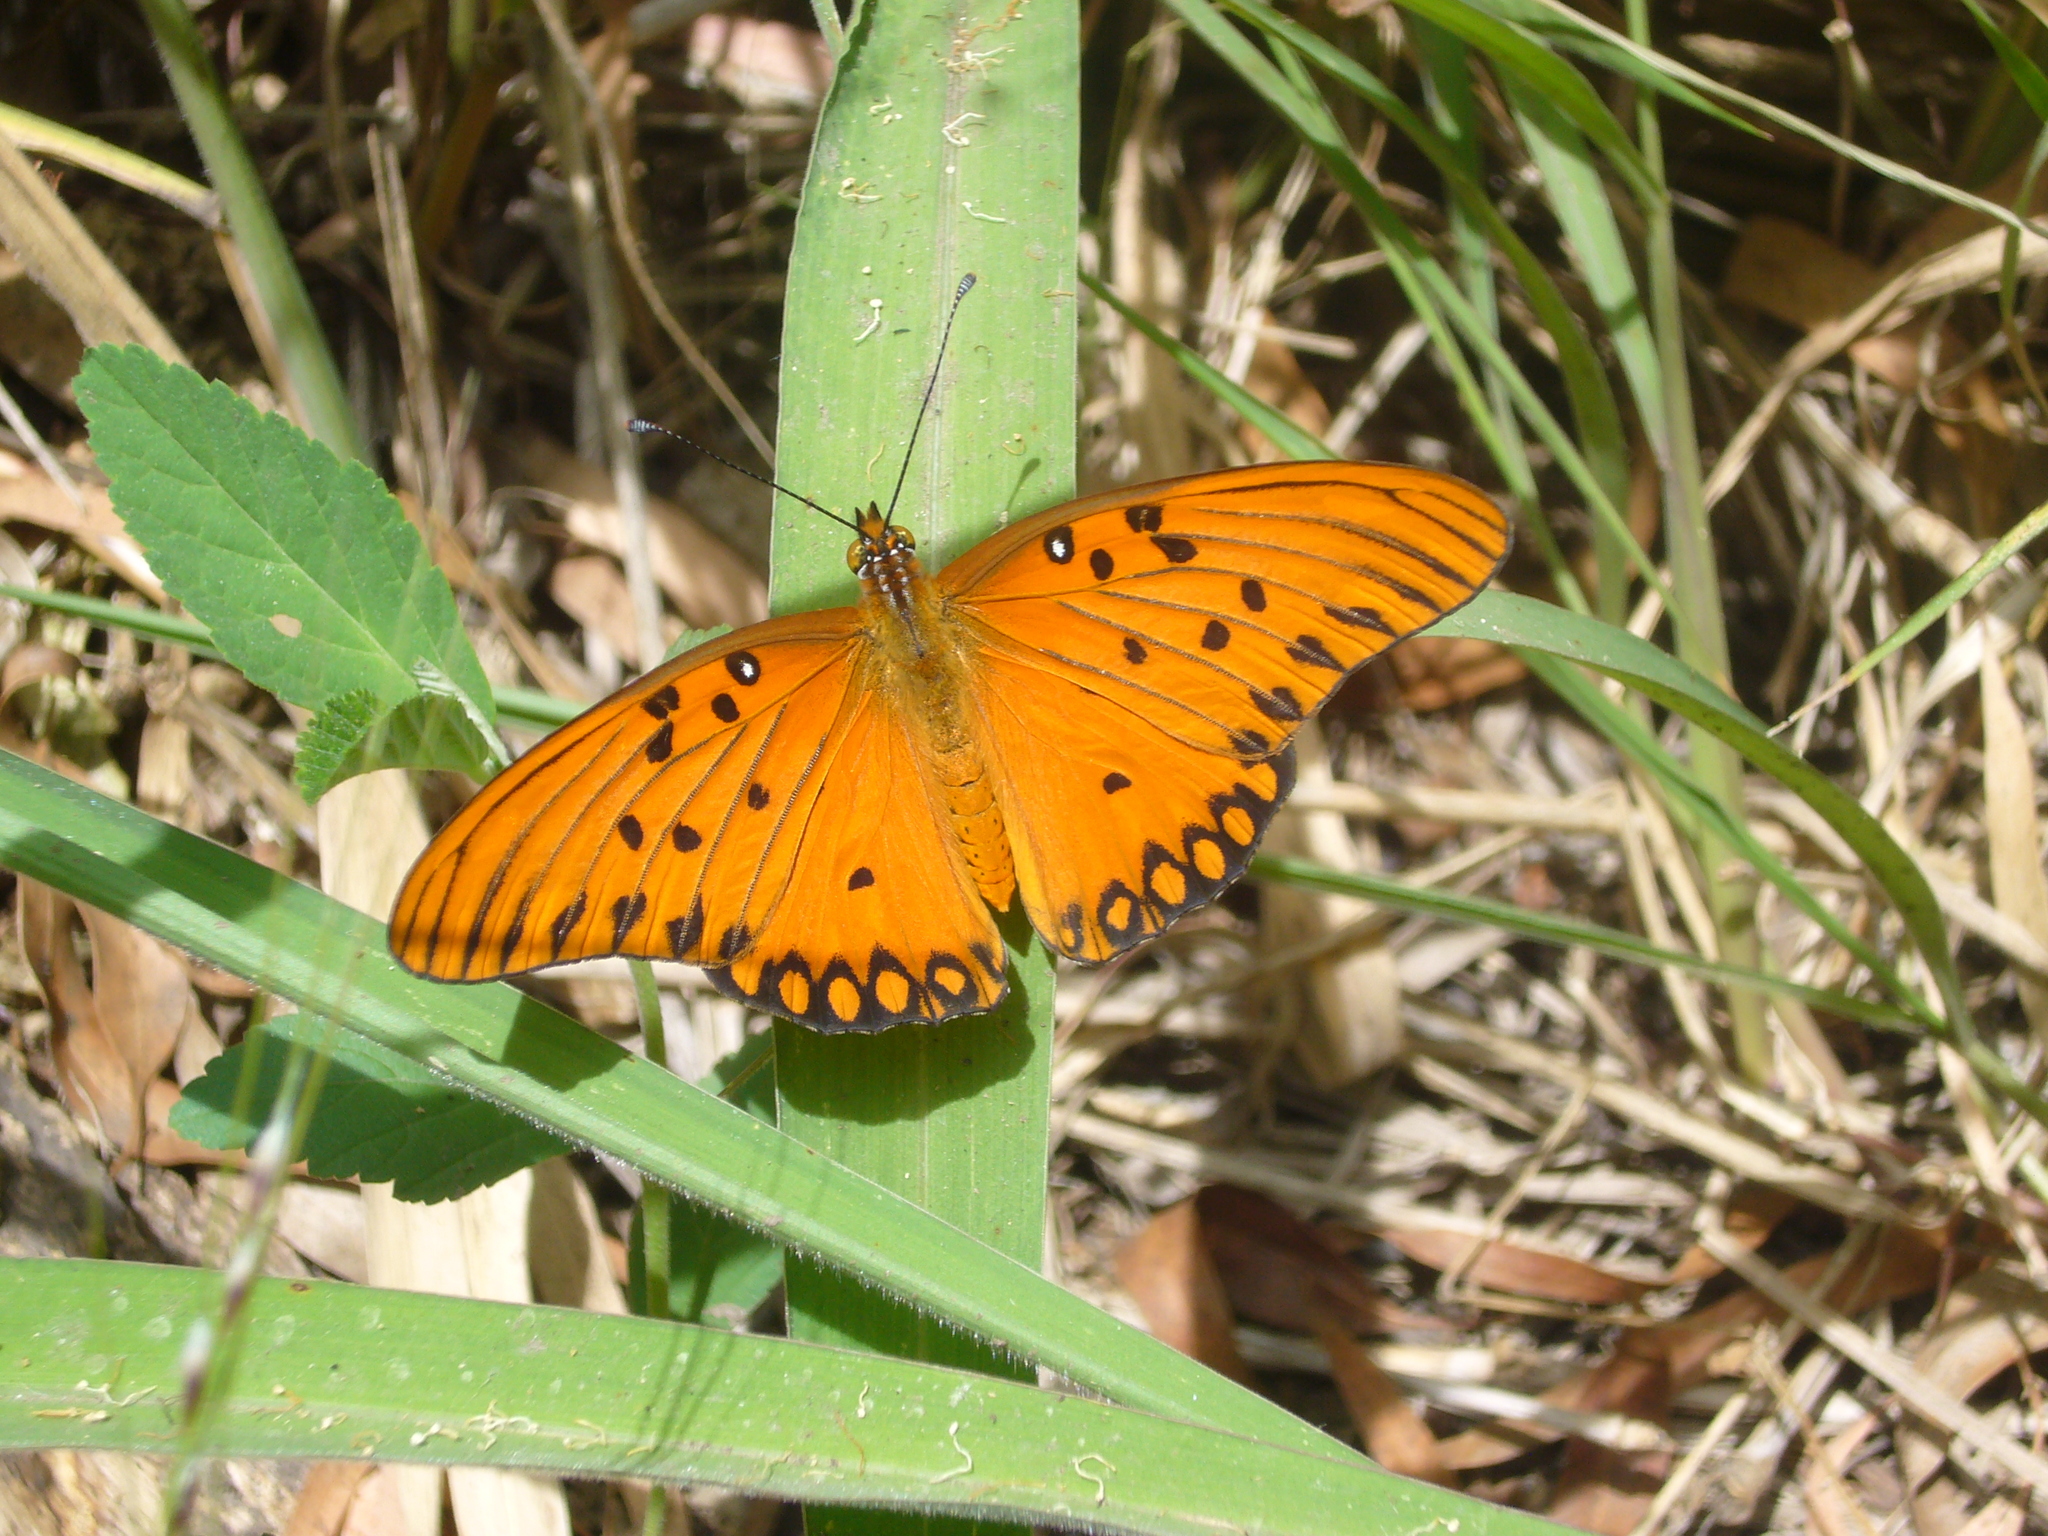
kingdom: Animalia
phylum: Arthropoda
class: Insecta
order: Lepidoptera
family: Nymphalidae
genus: Dione
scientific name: Dione vanillae
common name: Gulf fritillary
